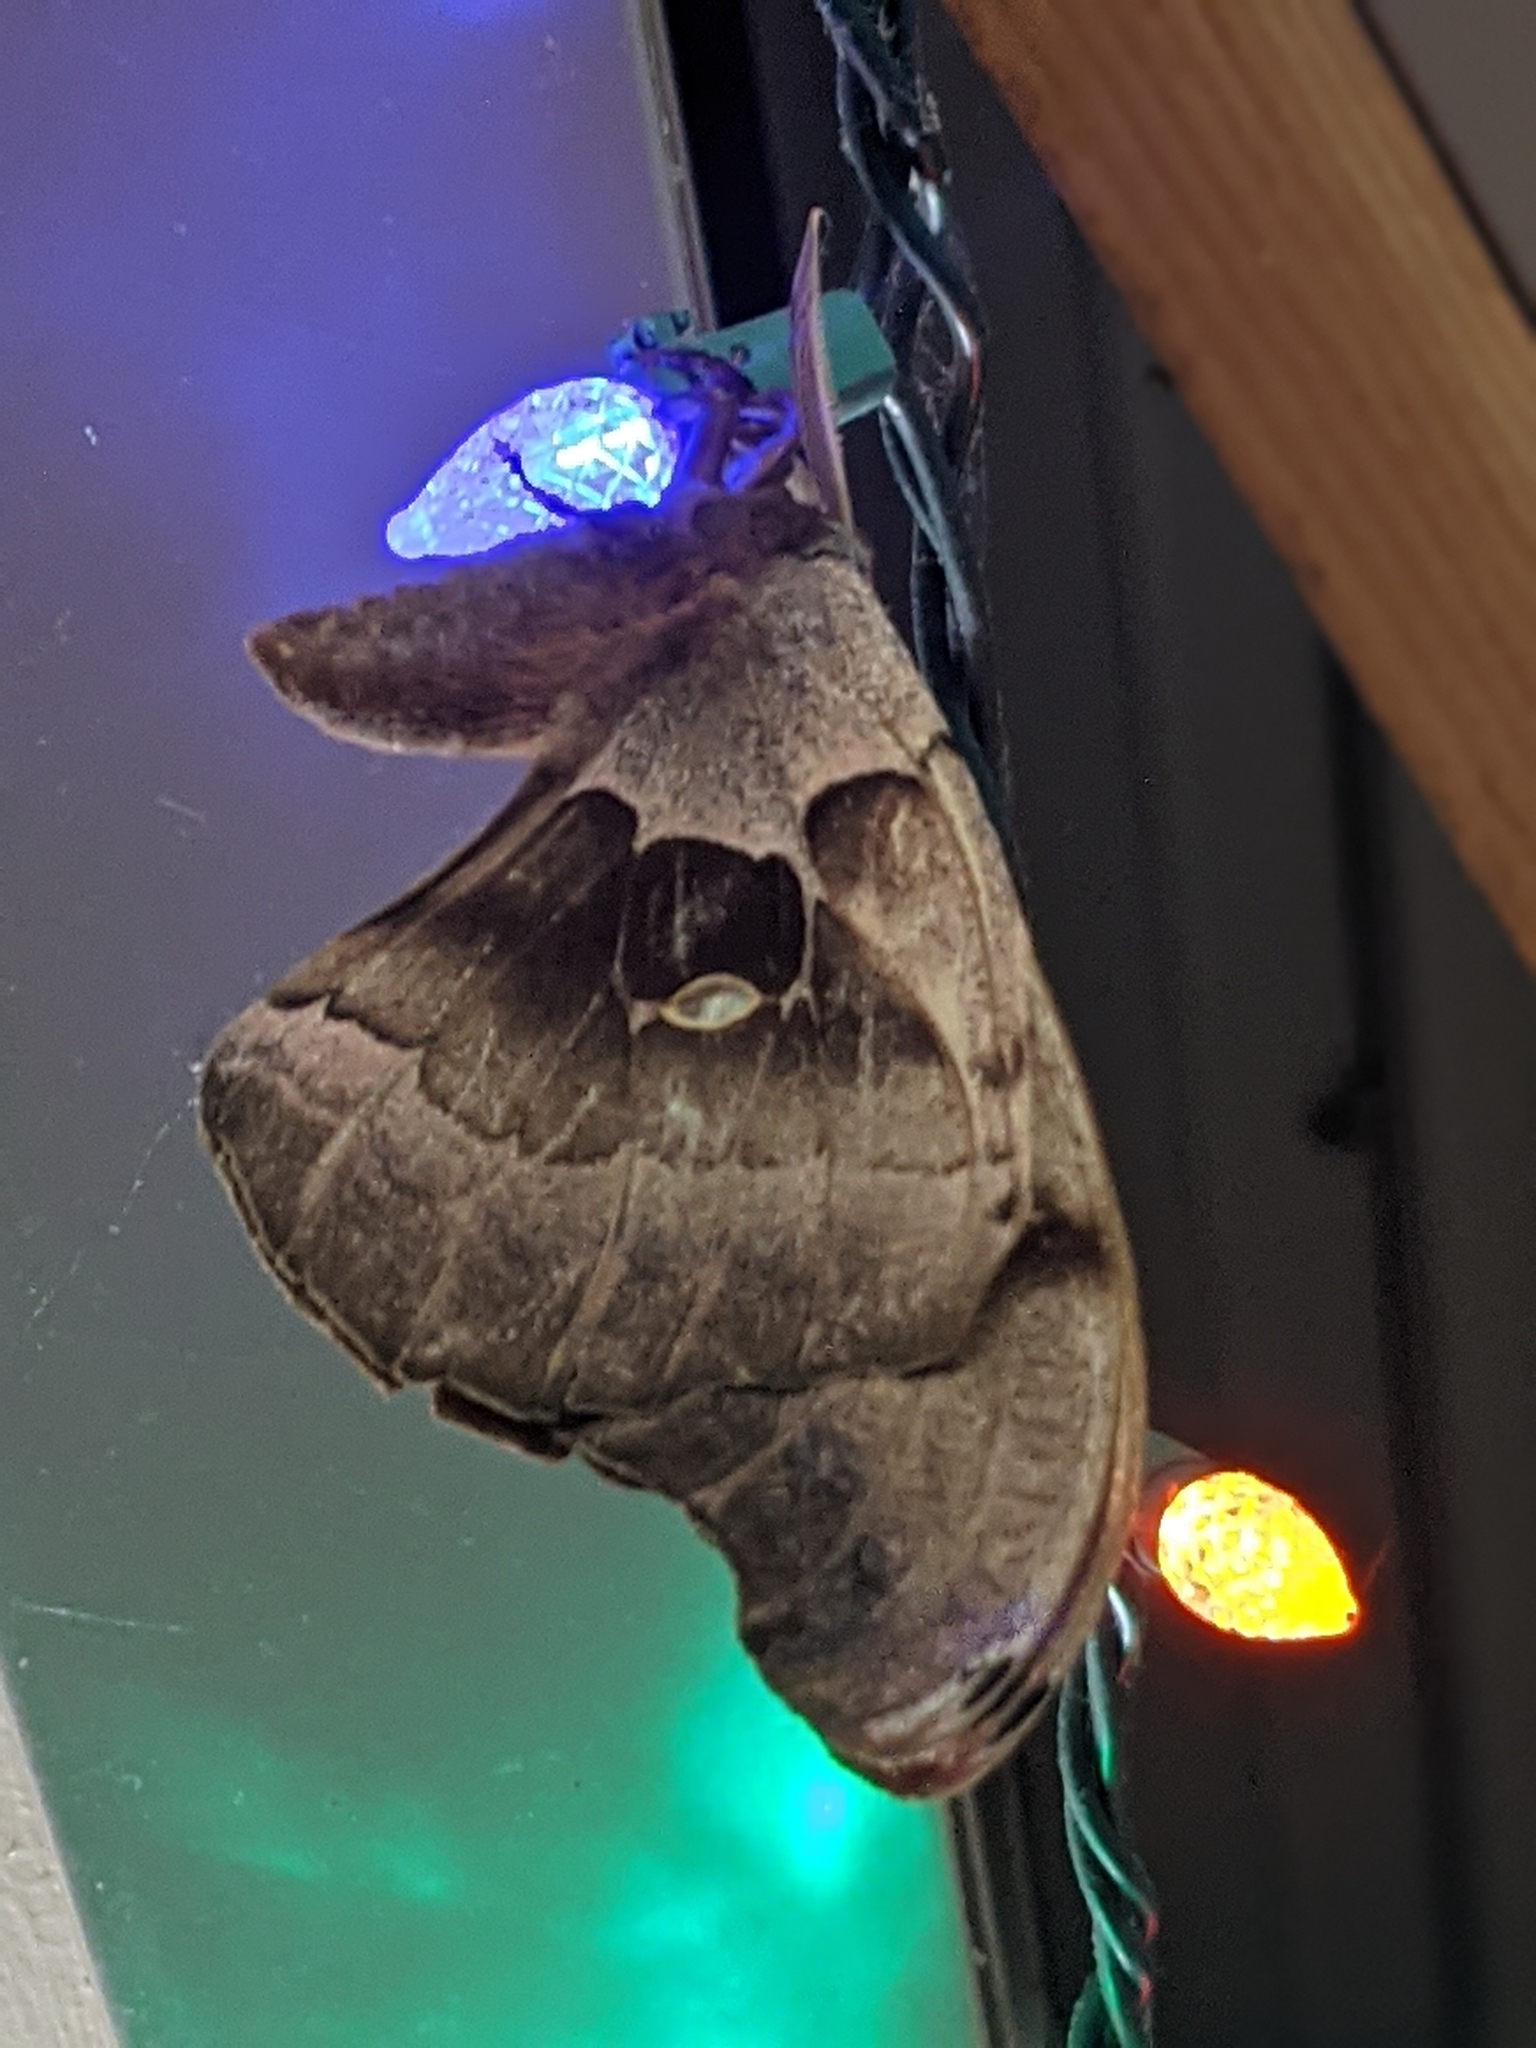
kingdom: Animalia
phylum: Arthropoda
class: Insecta
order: Lepidoptera
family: Saturniidae
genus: Antheraea
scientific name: Antheraea polyphemus
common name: Polyphemus moth
